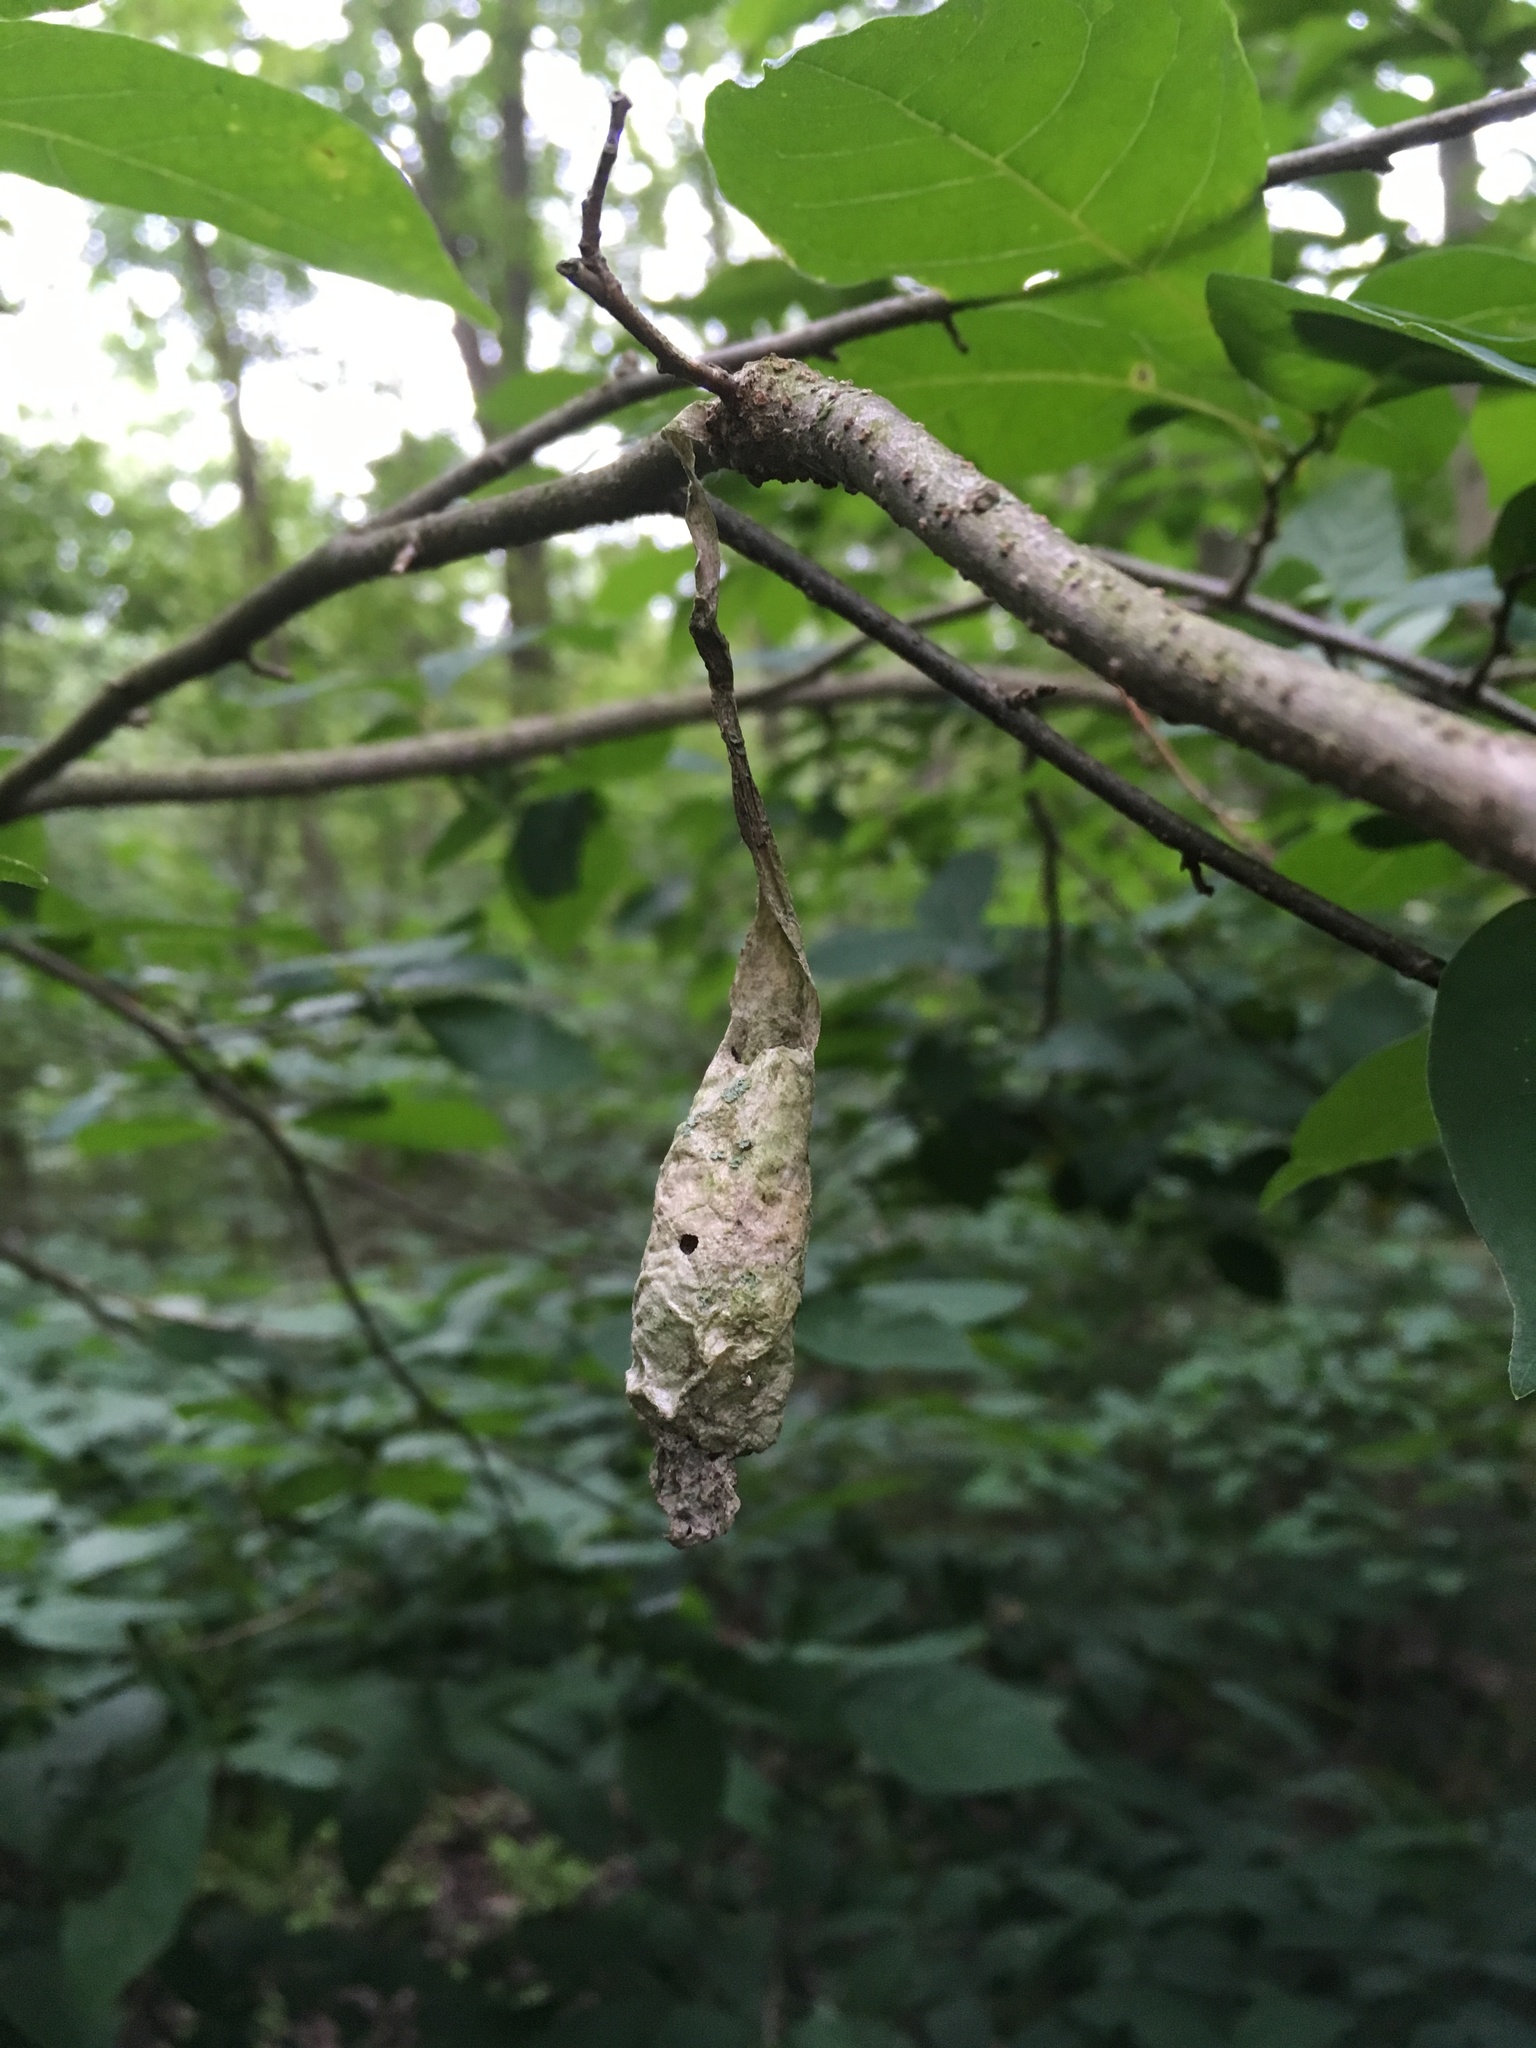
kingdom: Animalia
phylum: Arthropoda
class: Insecta
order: Lepidoptera
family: Saturniidae
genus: Callosamia
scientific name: Callosamia promethea
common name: Promethea silkmoth
